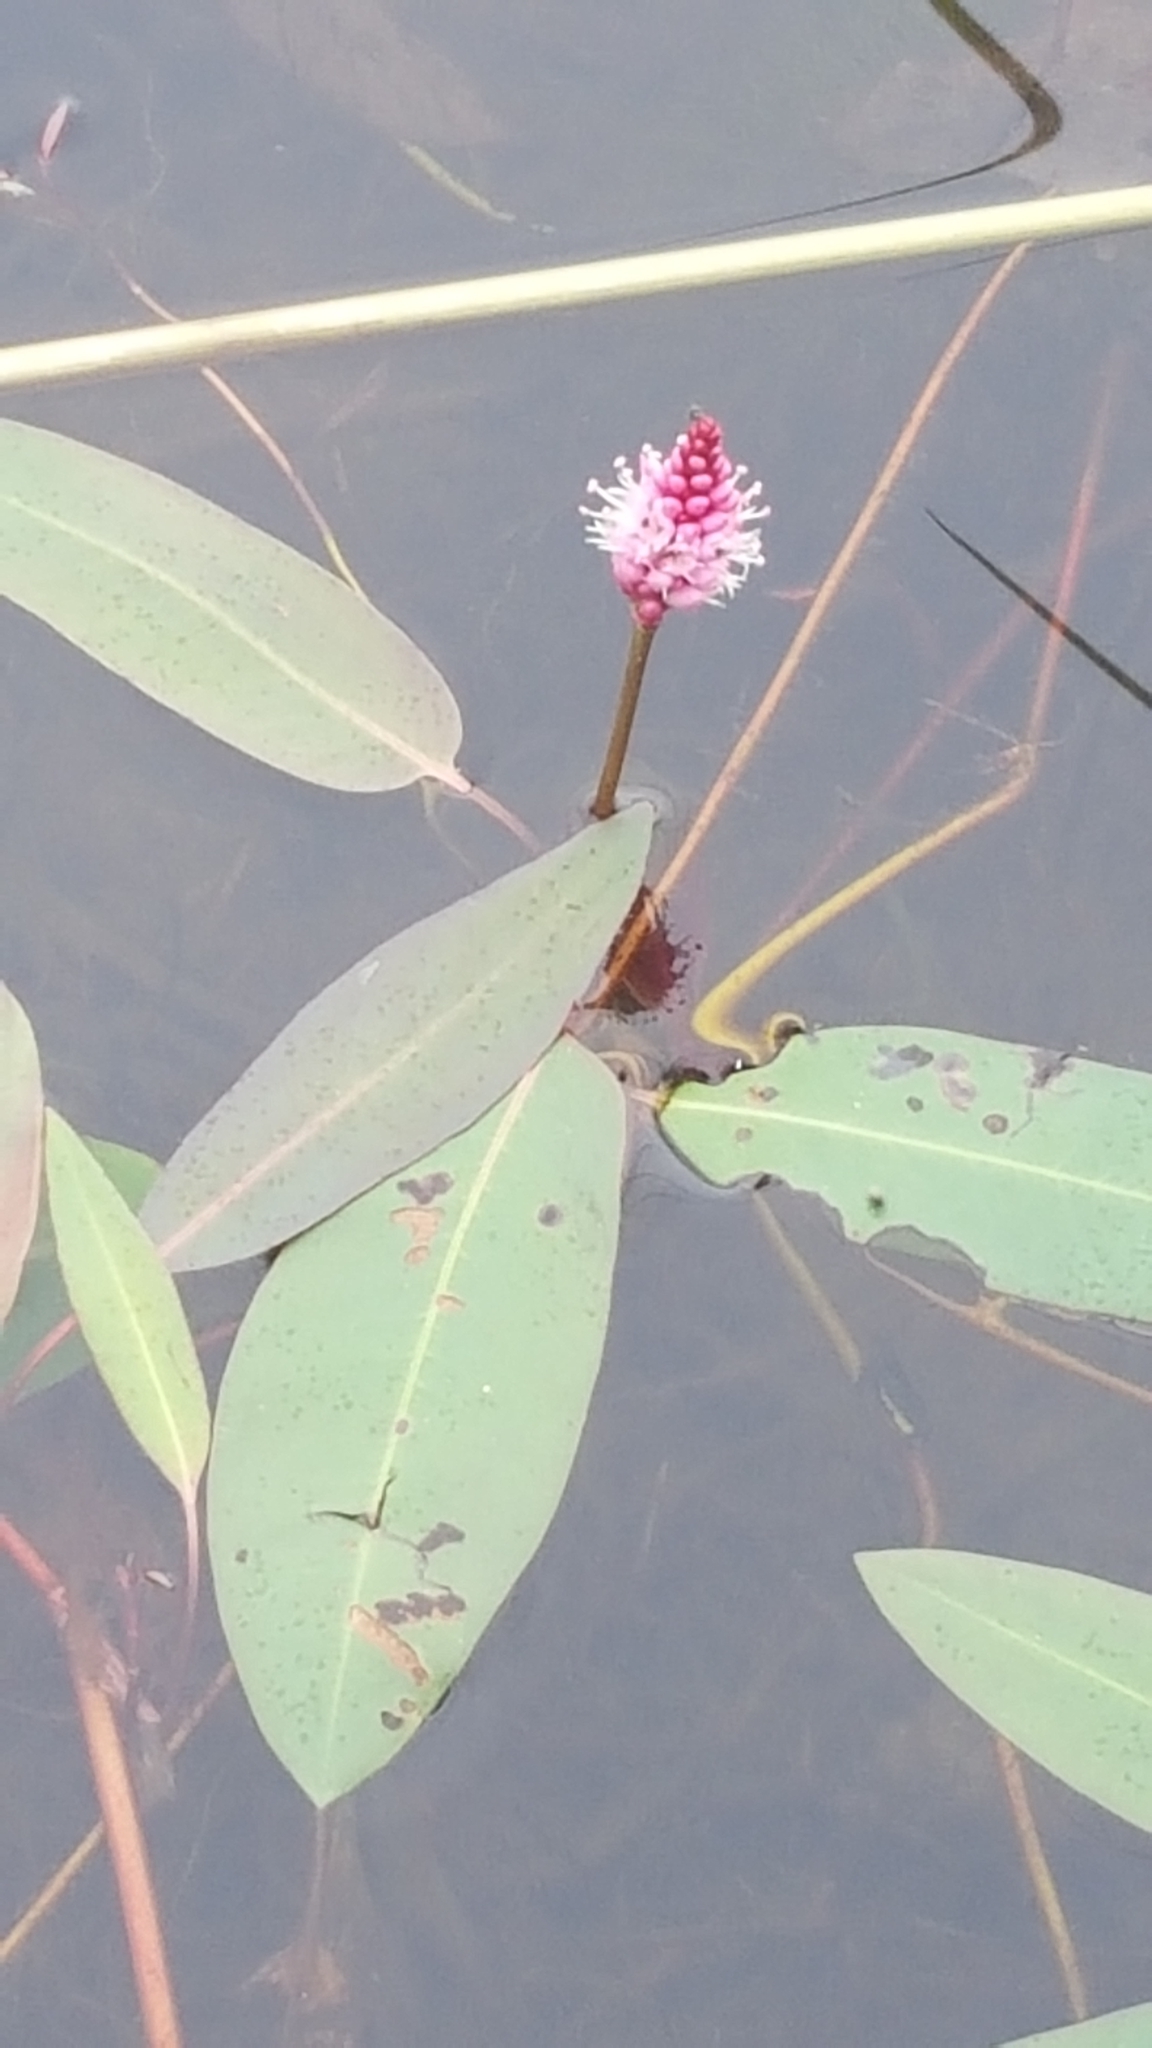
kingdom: Plantae
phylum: Tracheophyta
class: Magnoliopsida
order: Caryophyllales
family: Polygonaceae
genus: Persicaria
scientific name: Persicaria amphibia
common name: Amphibious bistort
